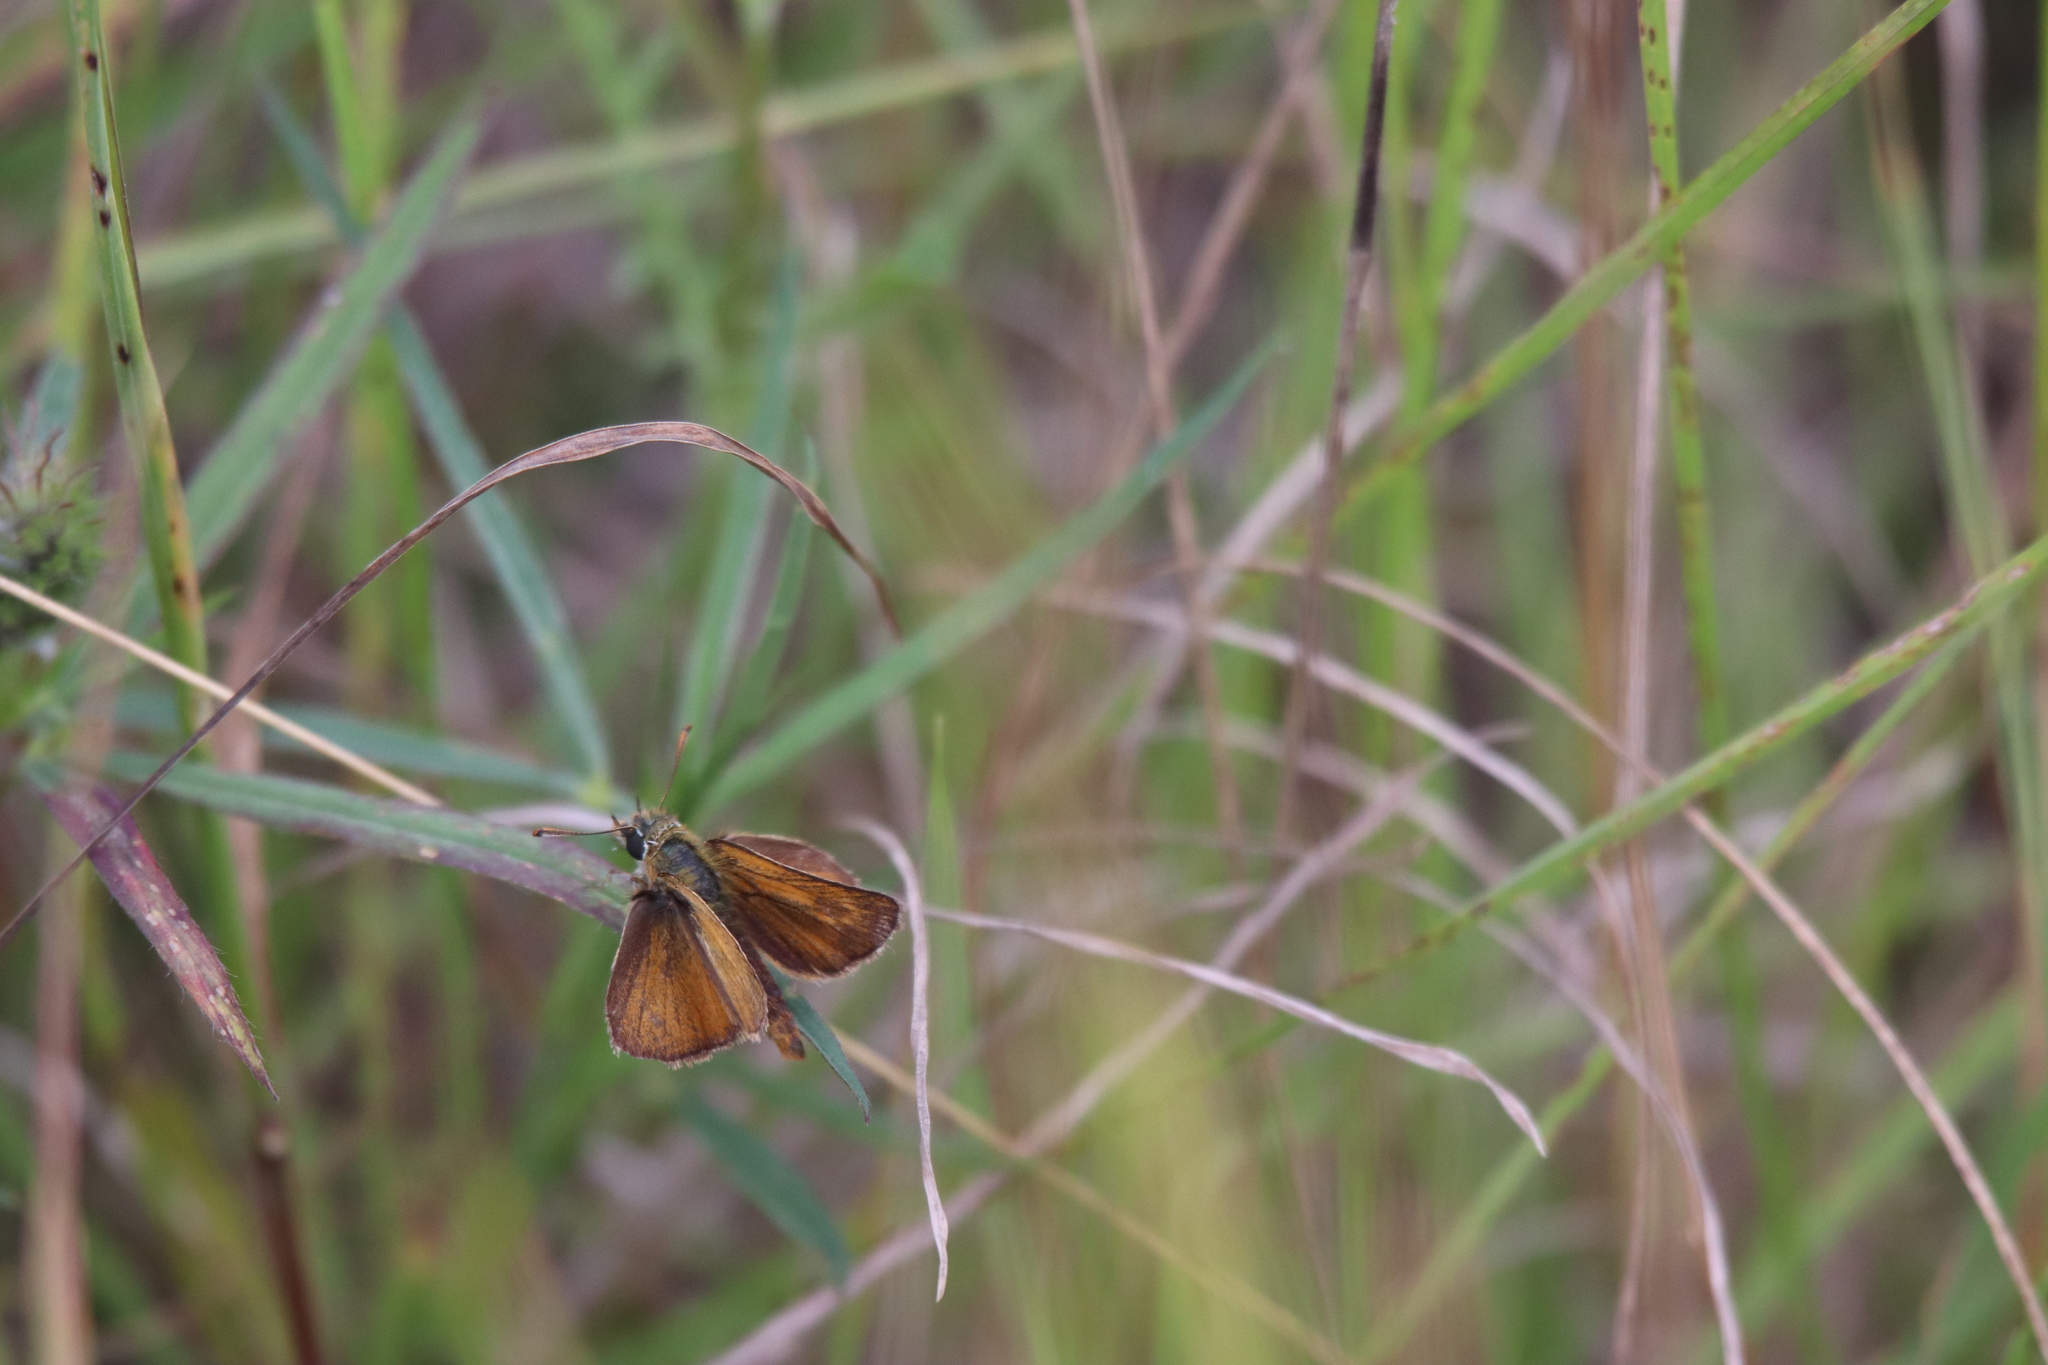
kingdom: Animalia
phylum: Arthropoda
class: Insecta
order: Lepidoptera
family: Hesperiidae
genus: Thymelicus
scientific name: Thymelicus acteon
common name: Lulworth skipper
